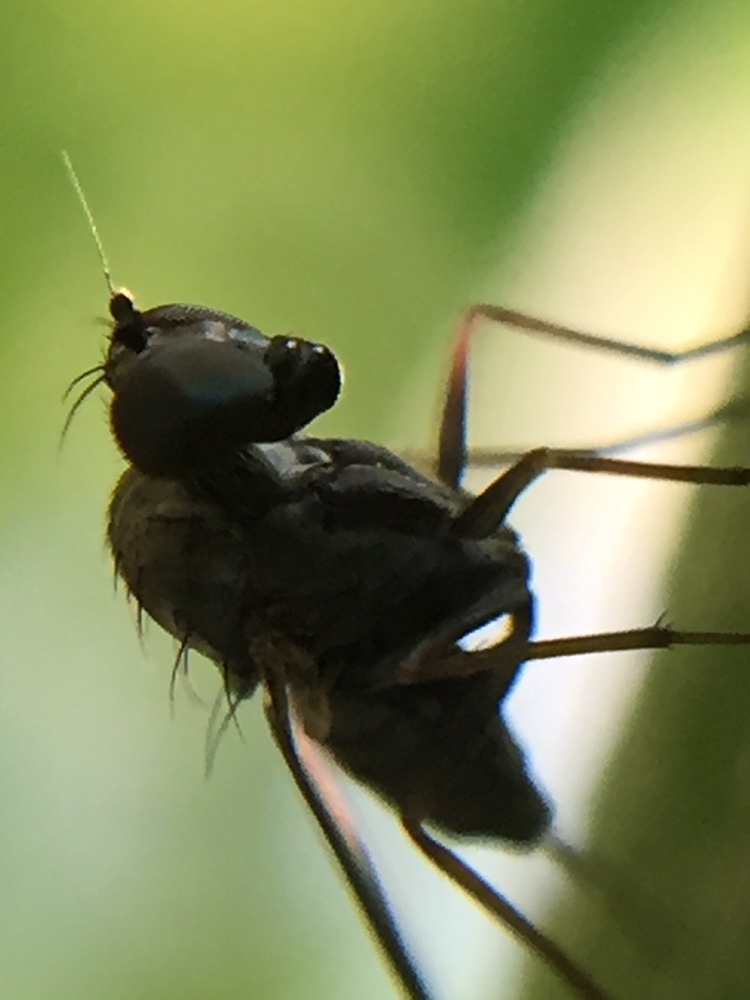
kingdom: Animalia
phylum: Arthropoda
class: Insecta
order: Diptera
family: Dolichopodidae
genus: Medetera
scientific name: Medetera grisescens
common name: Fly
